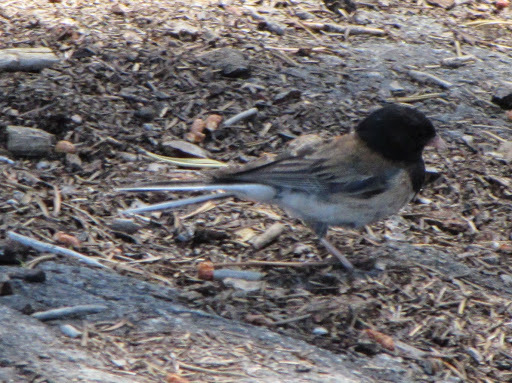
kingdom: Animalia
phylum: Chordata
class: Aves
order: Passeriformes
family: Passerellidae
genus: Junco
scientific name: Junco hyemalis
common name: Dark-eyed junco
